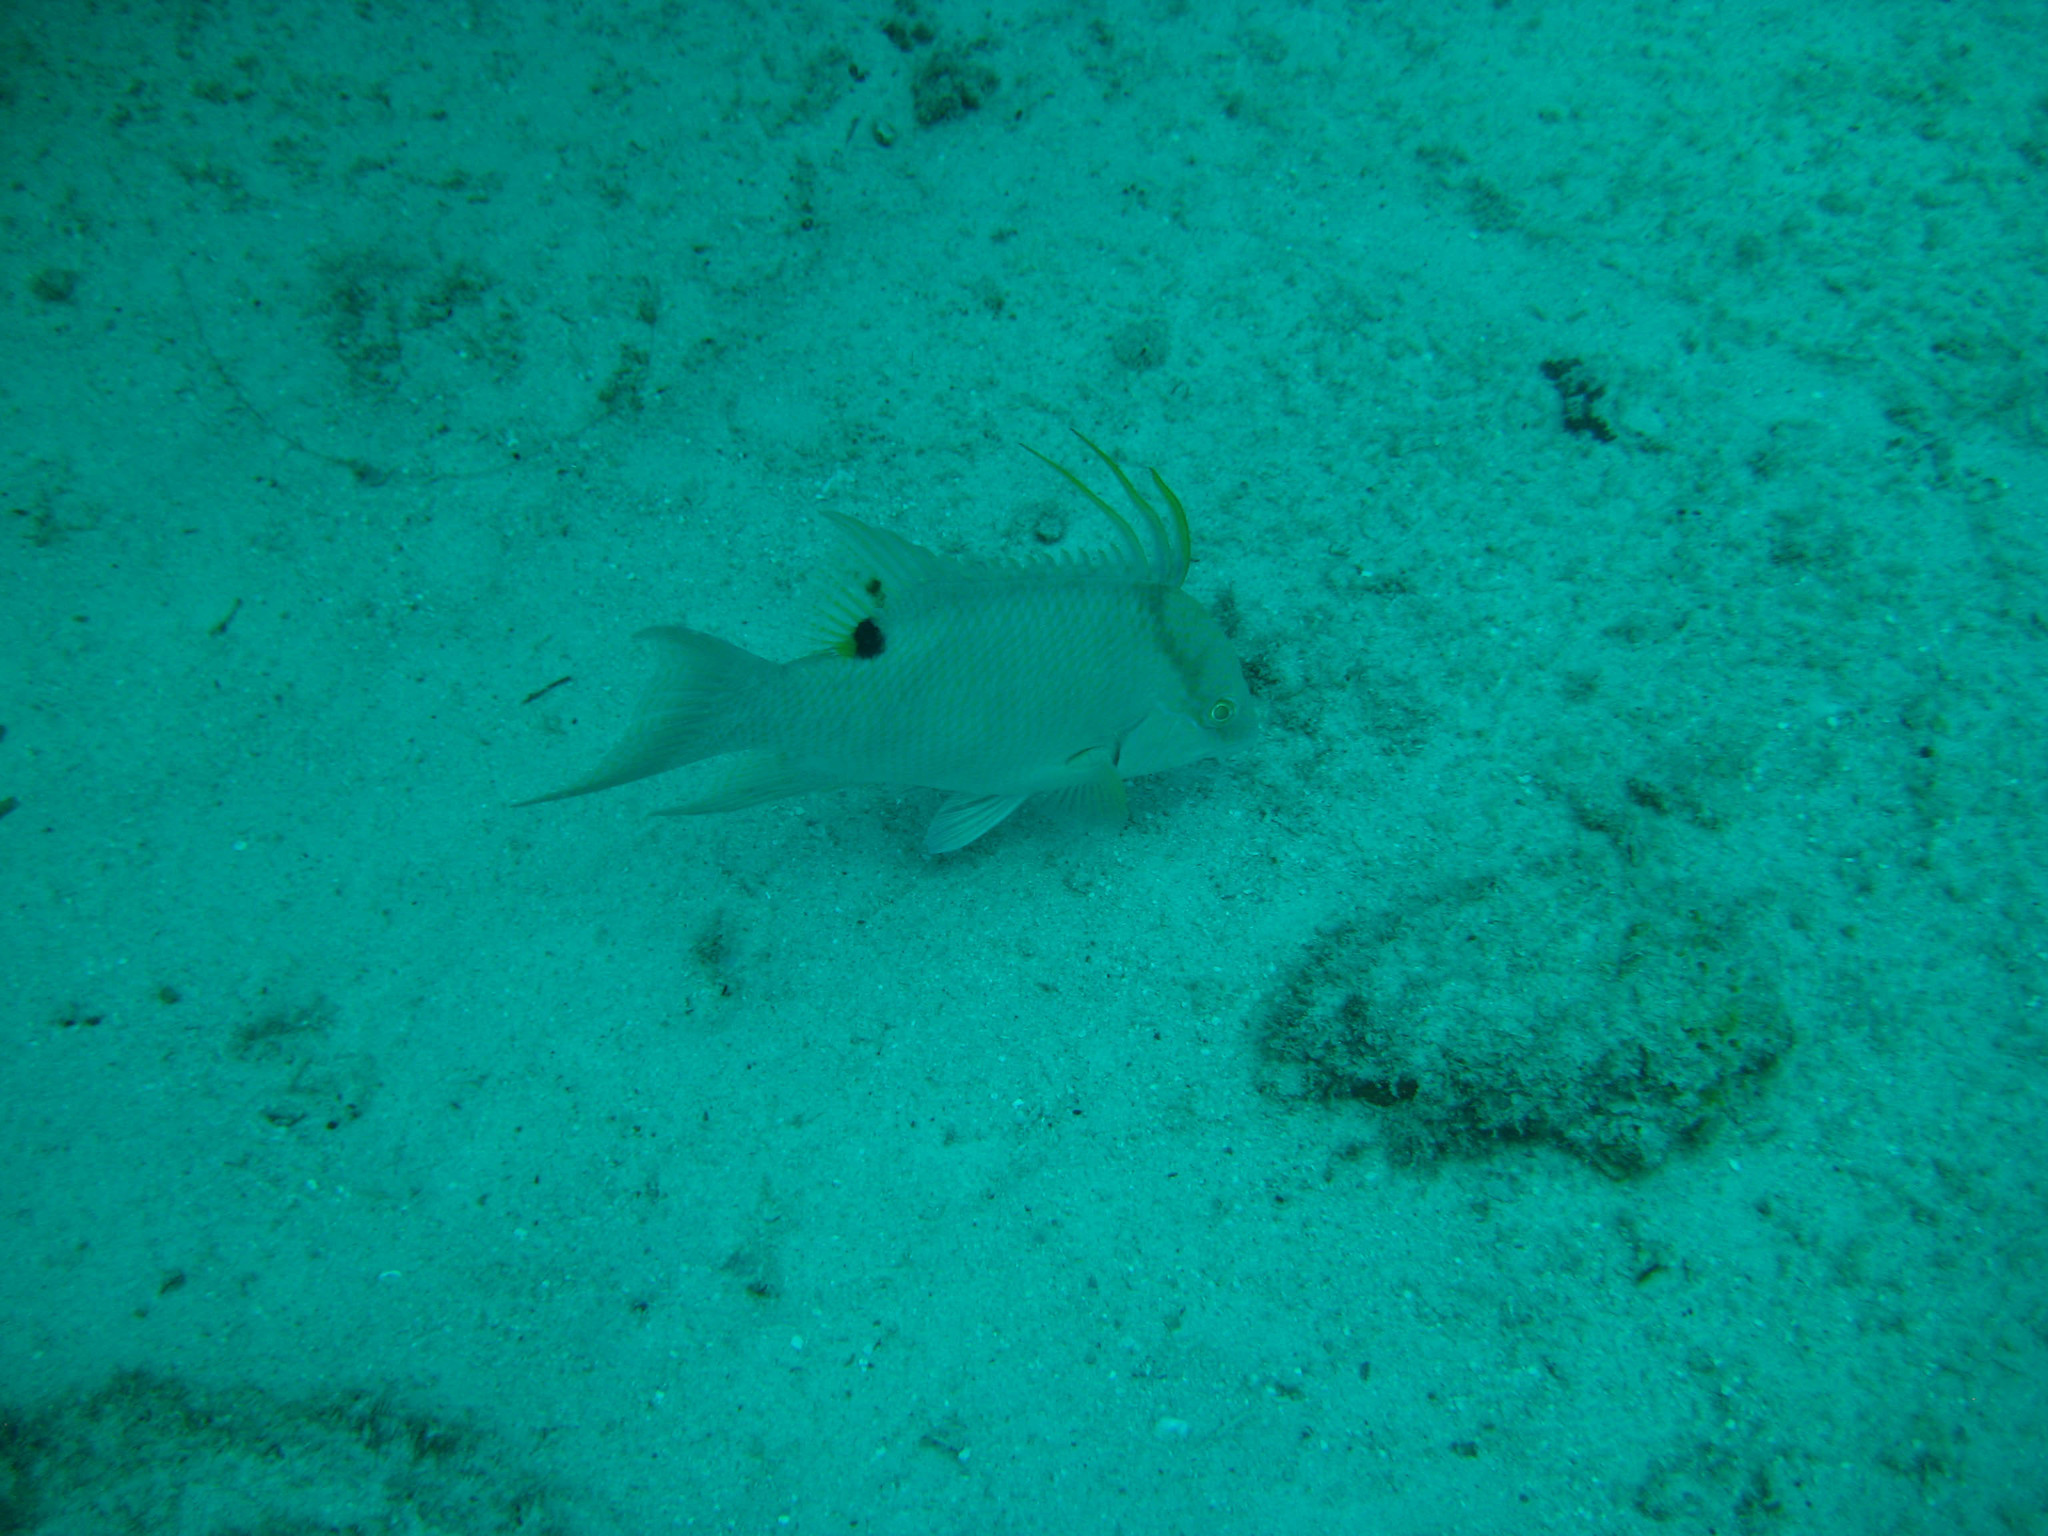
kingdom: Animalia
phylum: Chordata
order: Perciformes
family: Labridae
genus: Lachnolaimus
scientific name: Lachnolaimus maximus
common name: Hogfish
